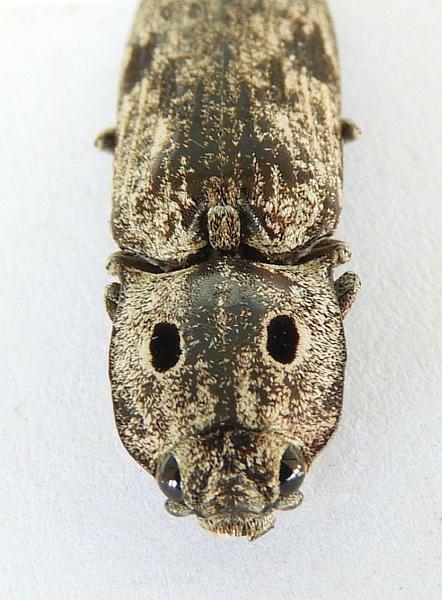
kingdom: Animalia
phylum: Arthropoda
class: Insecta
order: Coleoptera
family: Elateridae
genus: Alaus
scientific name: Alaus myops
